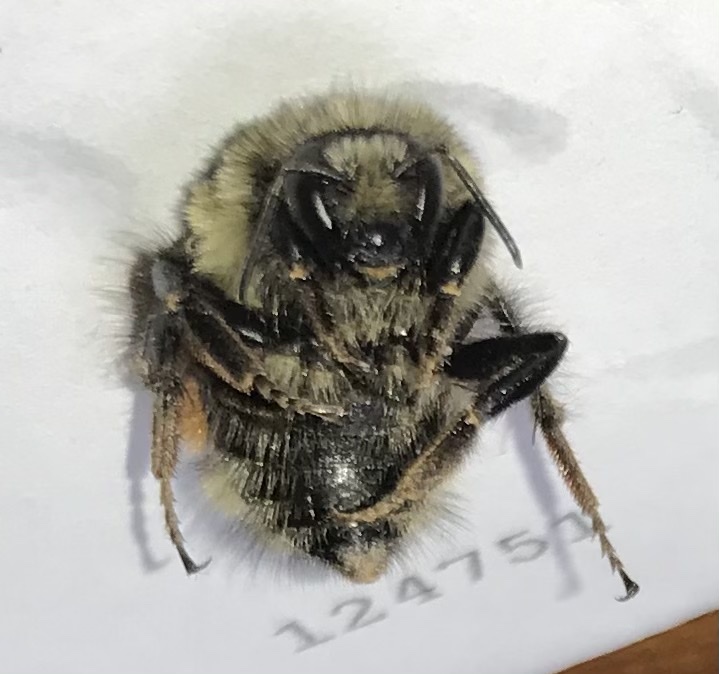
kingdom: Animalia
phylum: Arthropoda
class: Insecta
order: Hymenoptera
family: Apidae
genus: Bombus
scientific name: Bombus melanopygus
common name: Black tail bumble bee
